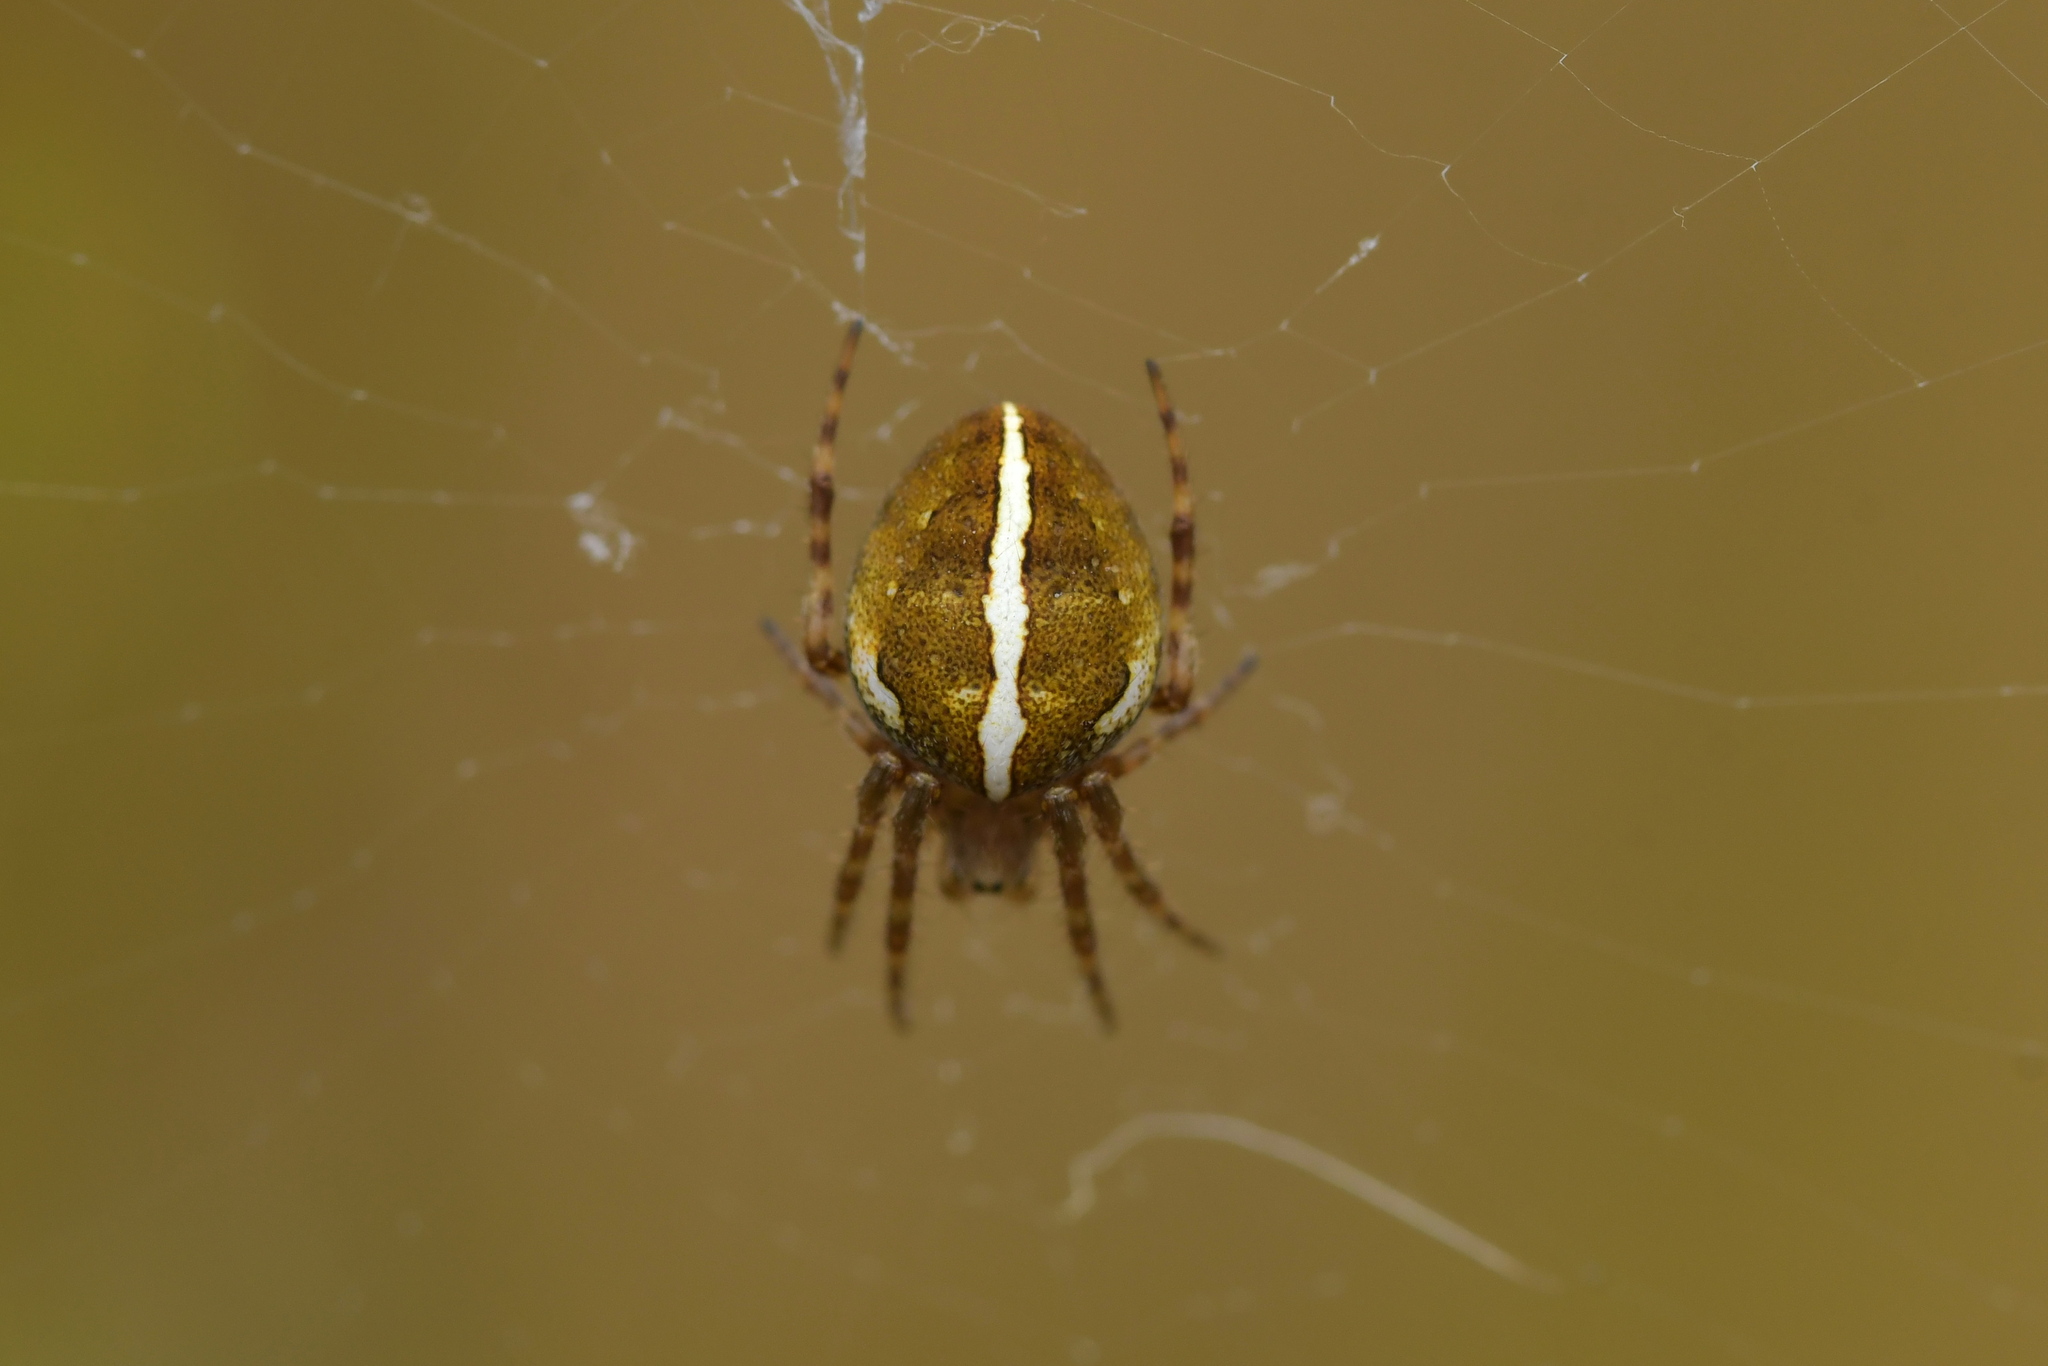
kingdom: Animalia
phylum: Arthropoda
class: Arachnida
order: Araneae
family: Araneidae
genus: Colaranea
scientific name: Colaranea brunnea
